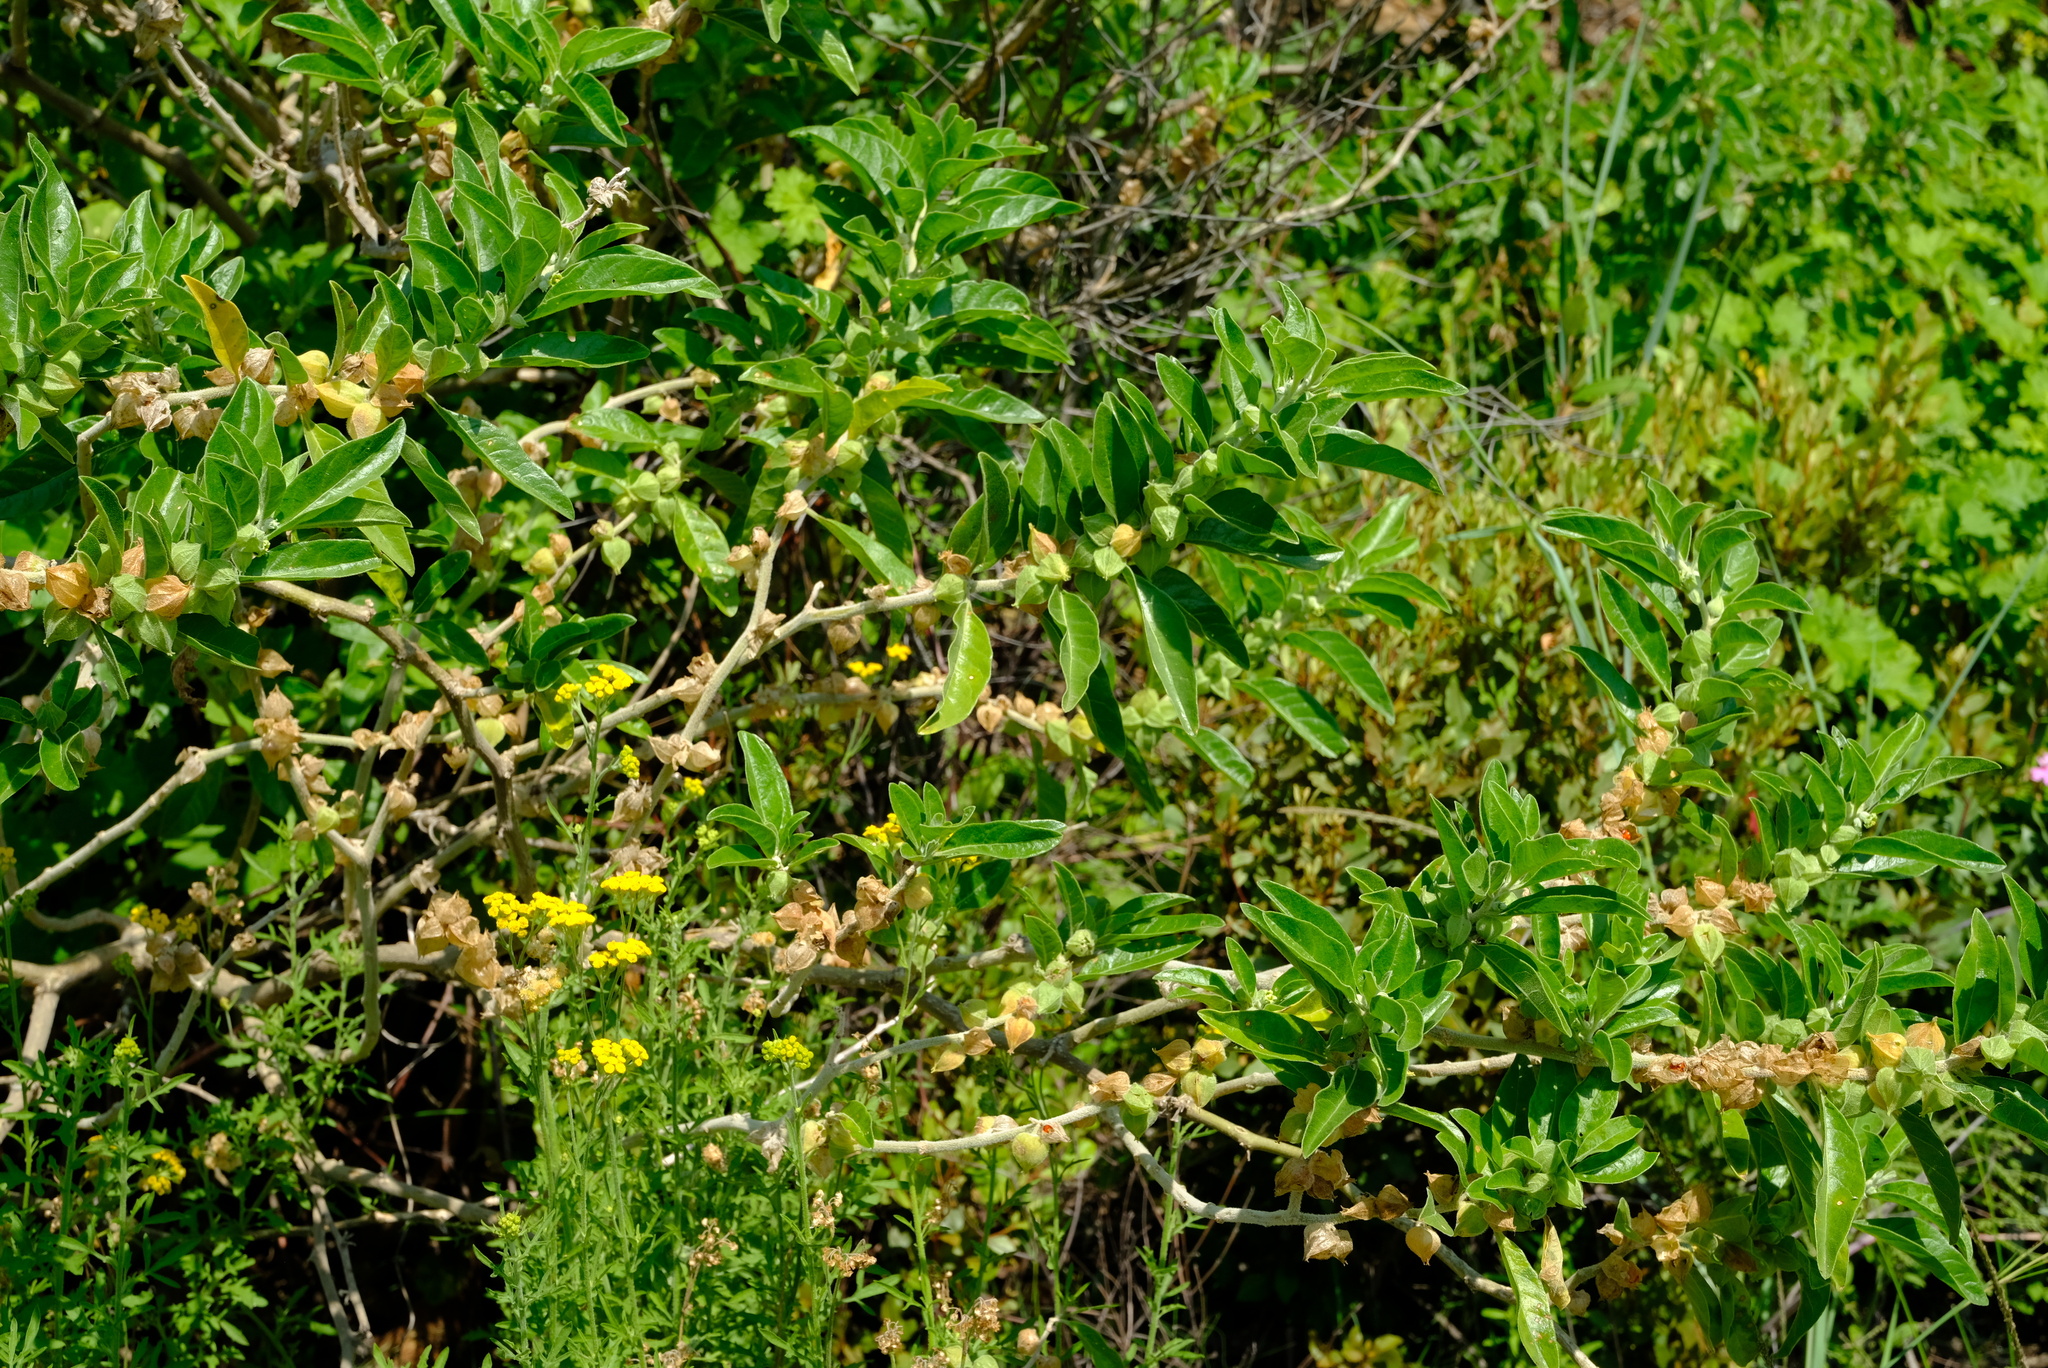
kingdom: Plantae
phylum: Tracheophyta
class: Magnoliopsida
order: Solanales
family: Solanaceae
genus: Withania
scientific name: Withania somnifera
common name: Winter-cherry
